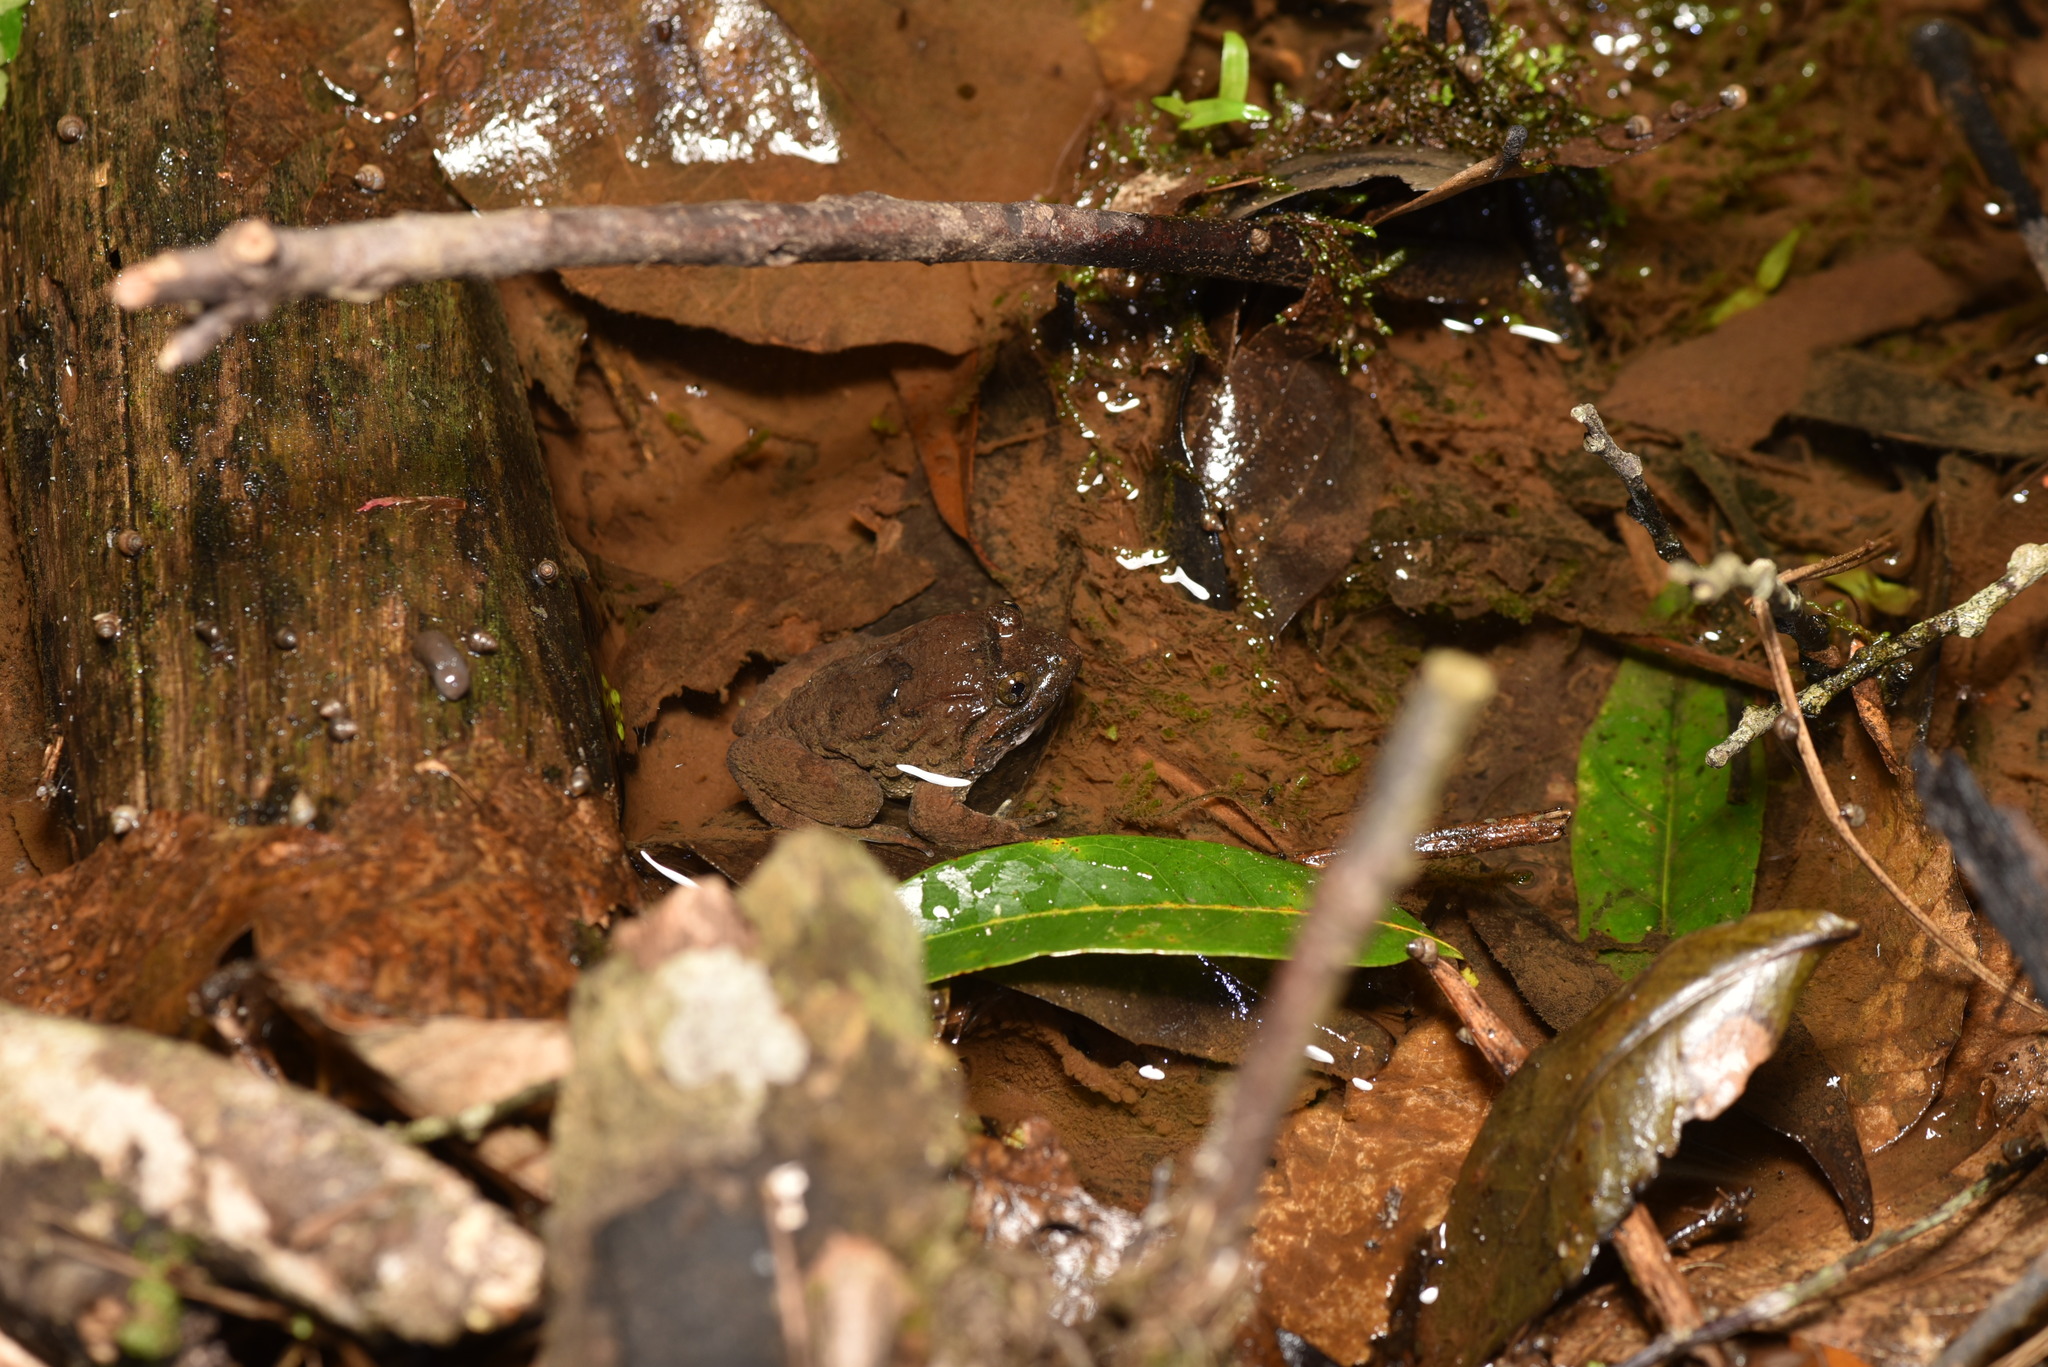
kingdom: Animalia
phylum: Chordata
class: Amphibia
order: Anura
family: Dicroglossidae
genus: Limnonectes
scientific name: Limnonectes fujianensis
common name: Fujian large-headed frog
